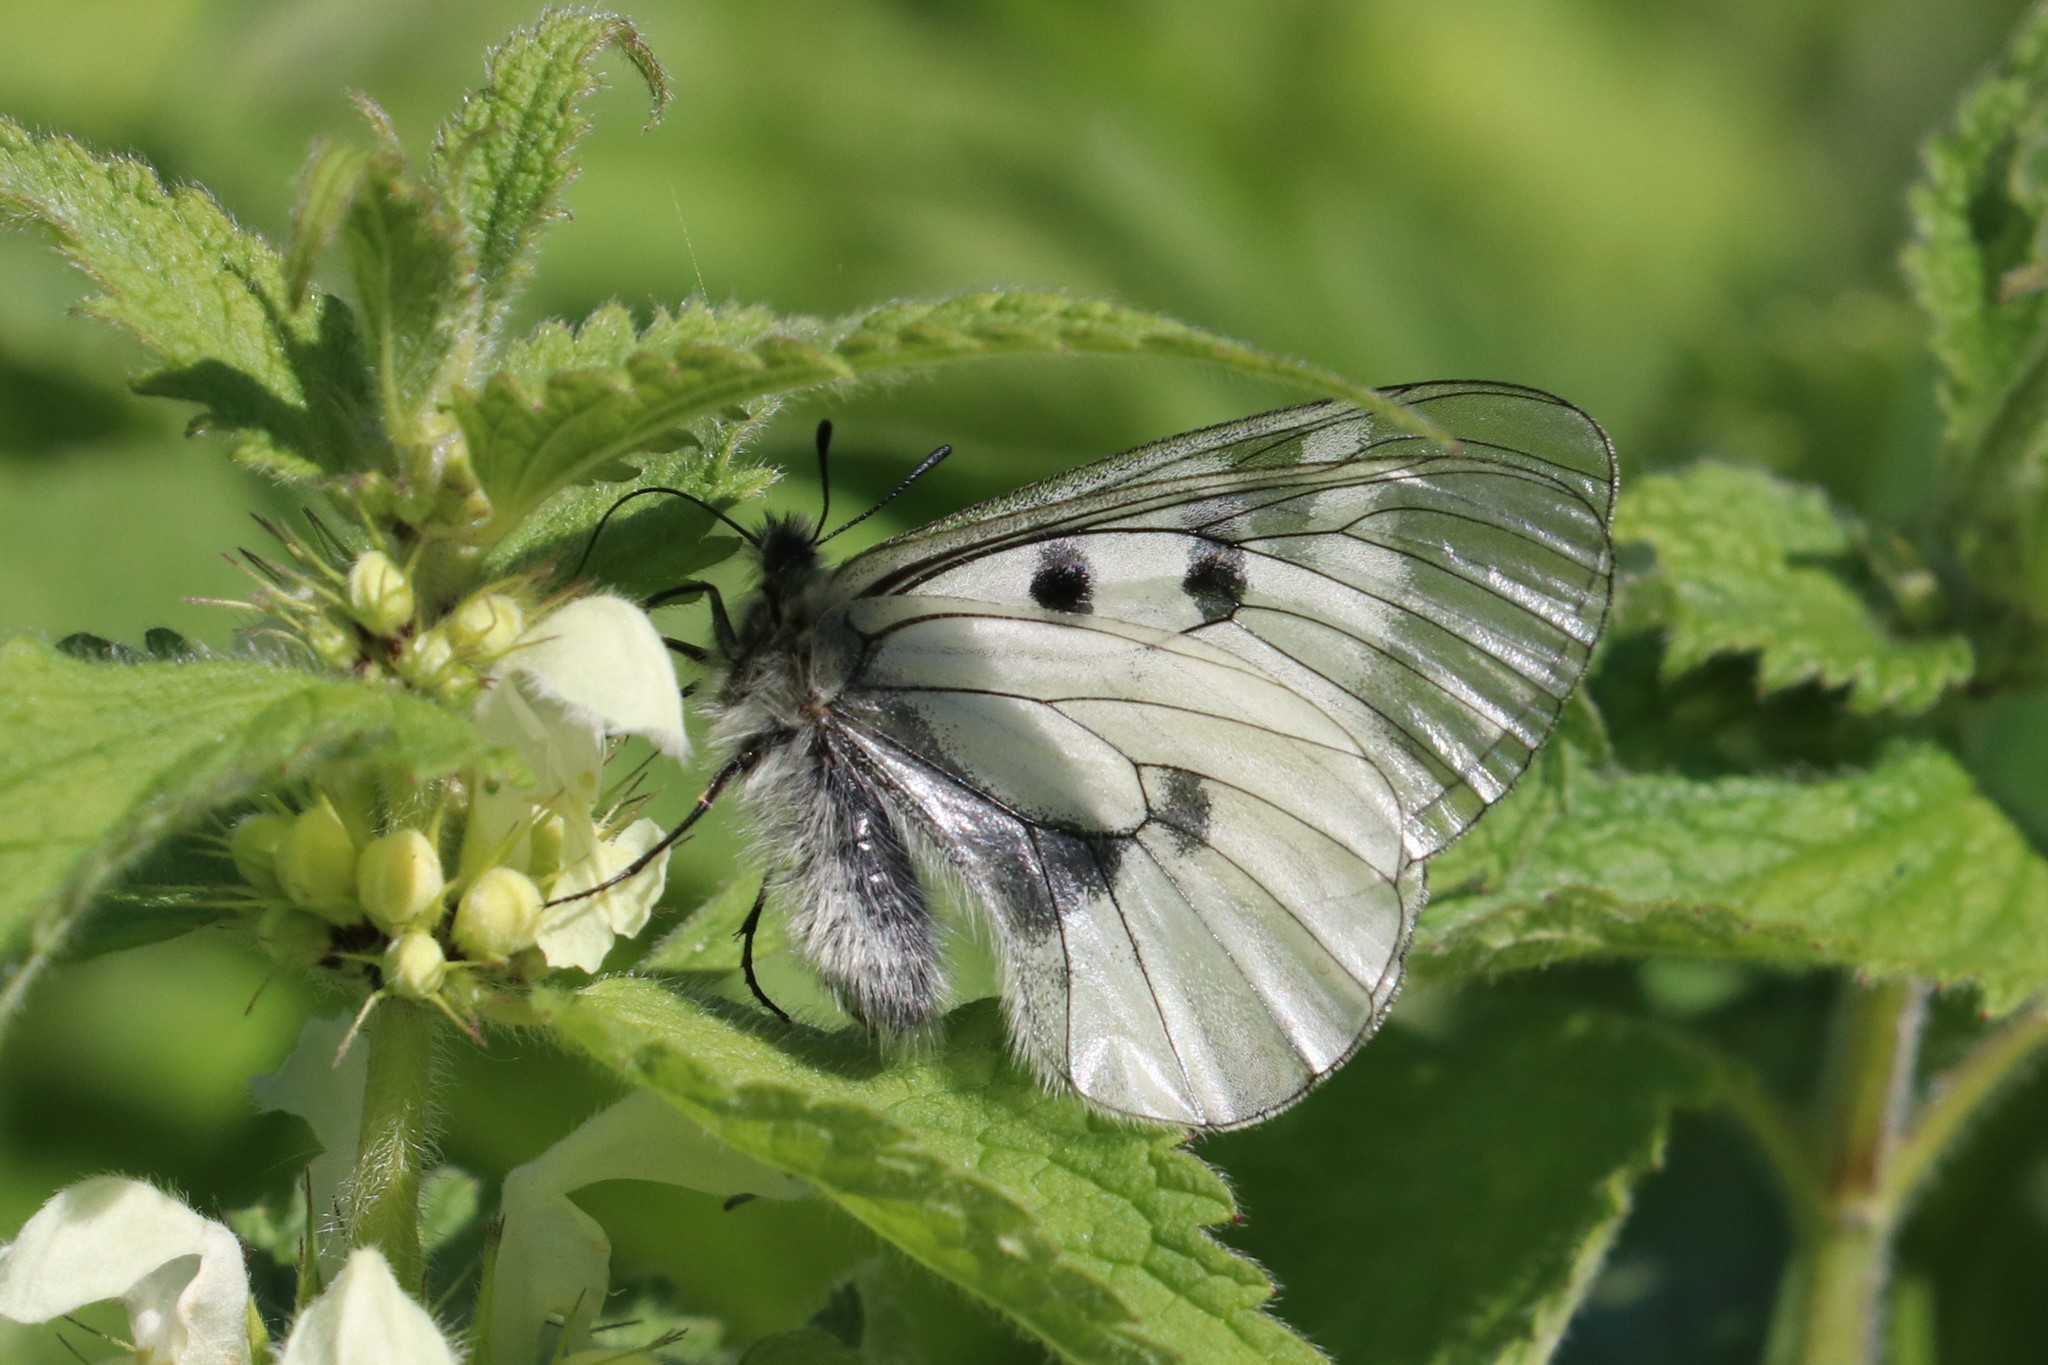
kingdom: Animalia
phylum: Arthropoda
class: Insecta
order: Lepidoptera
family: Papilionidae
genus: Parnassius
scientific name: Parnassius mnemosyne
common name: Clouded apollo
